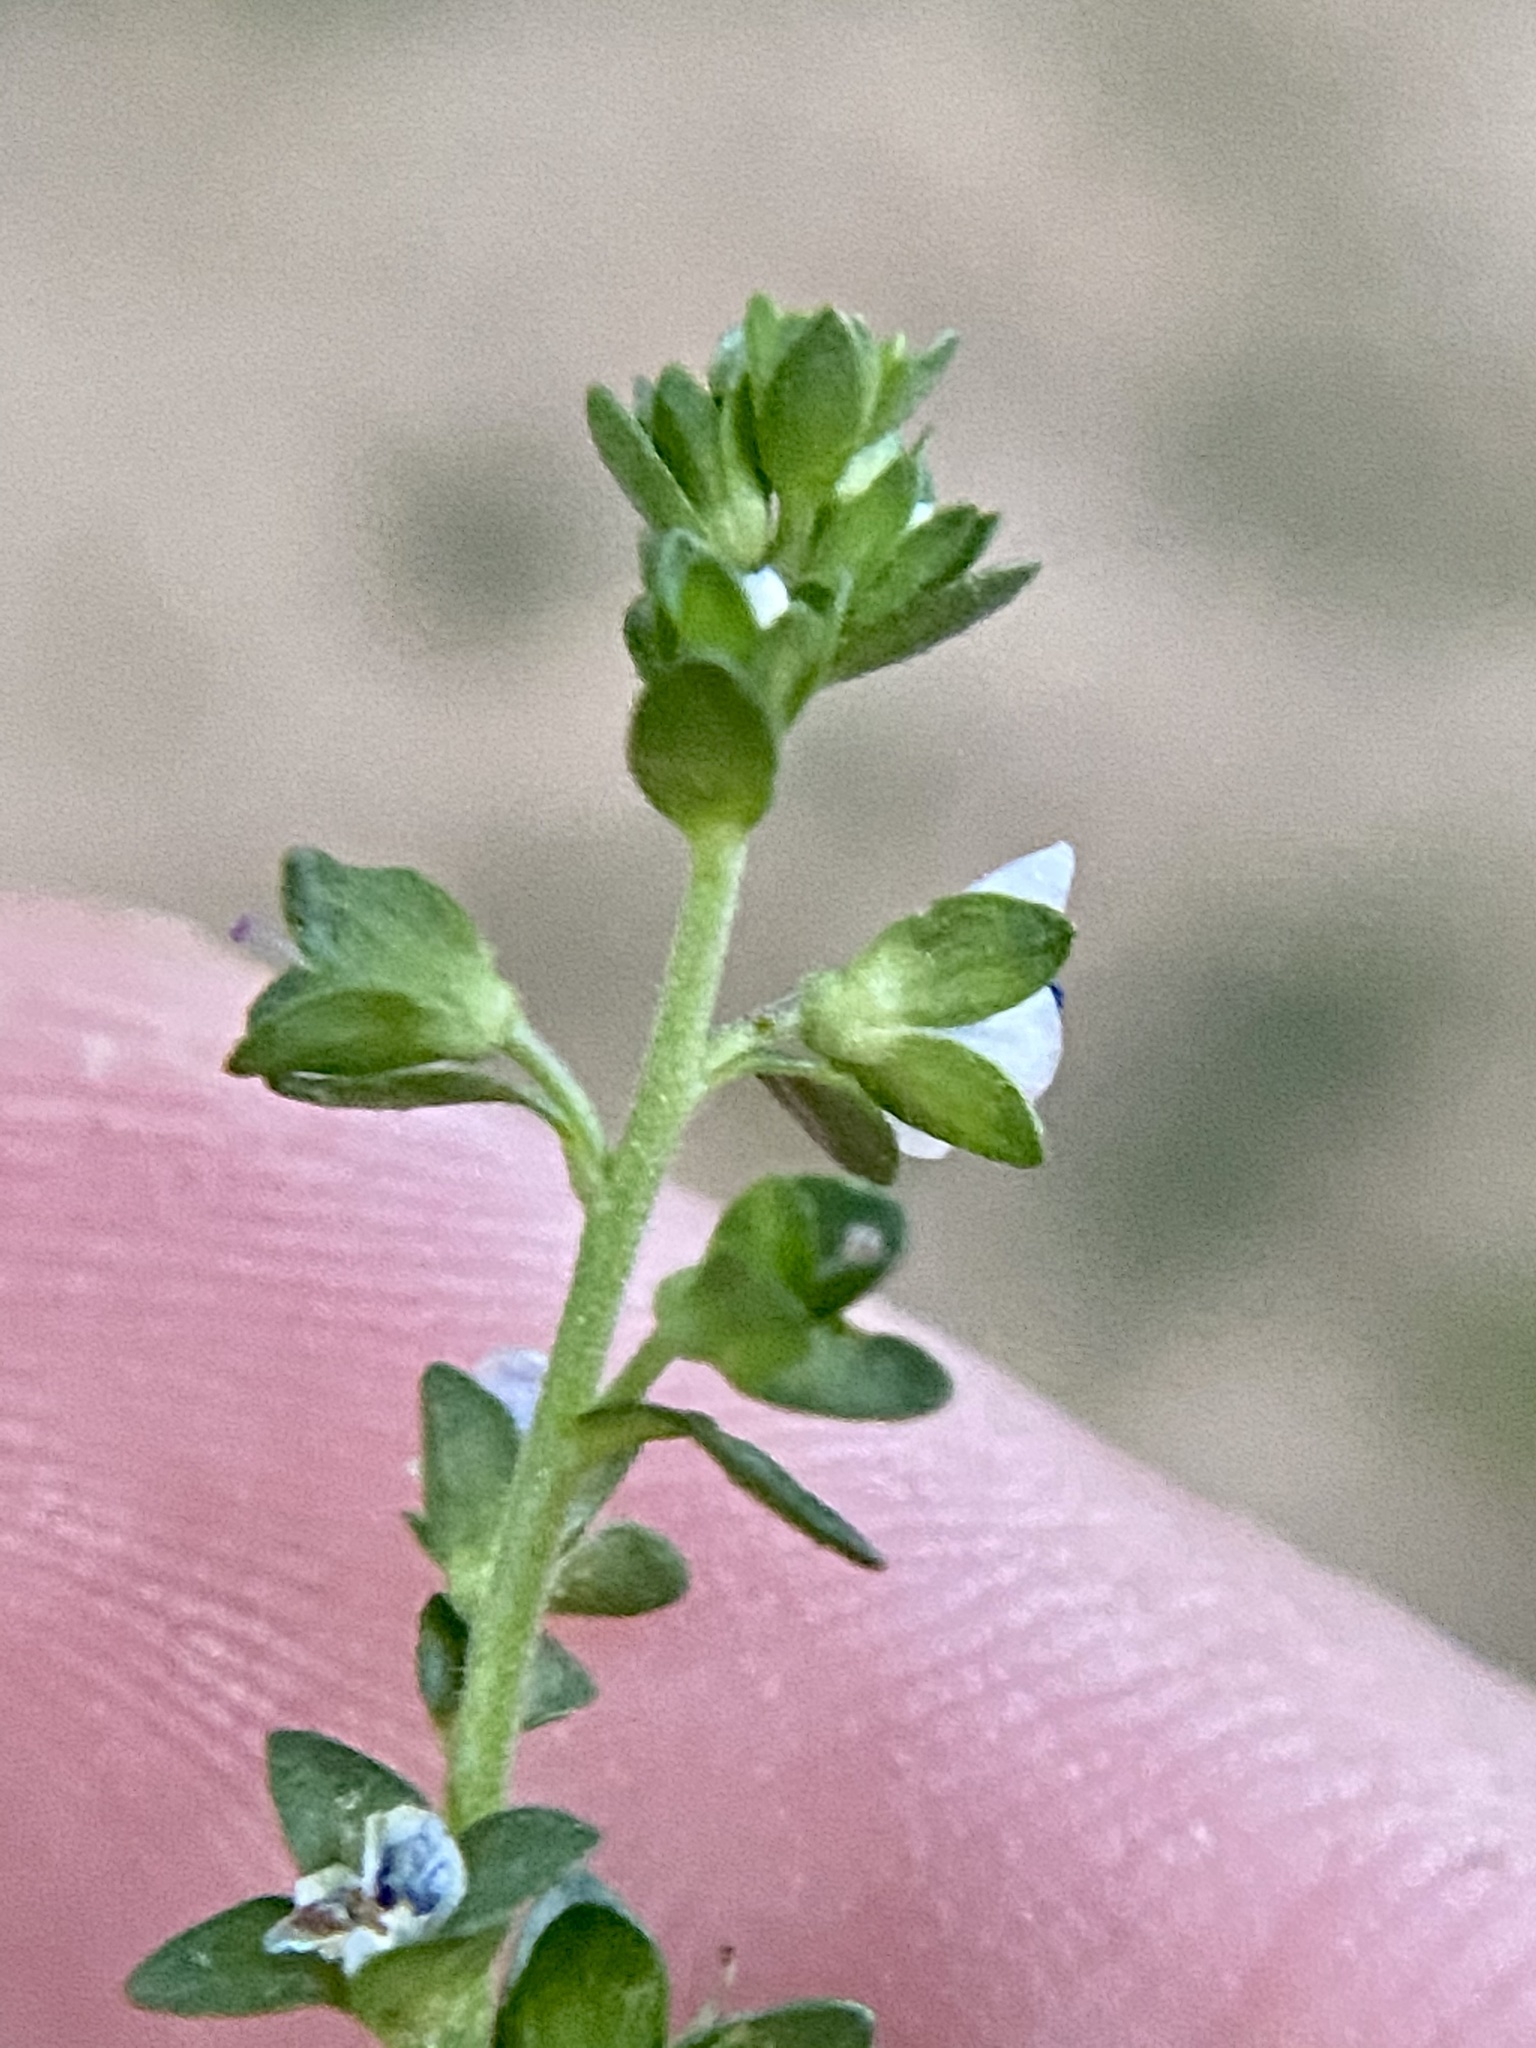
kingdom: Plantae
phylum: Tracheophyta
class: Magnoliopsida
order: Lamiales
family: Plantaginaceae
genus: Veronica
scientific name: Veronica serpyllifolia
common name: Thyme-leaved speedwell
